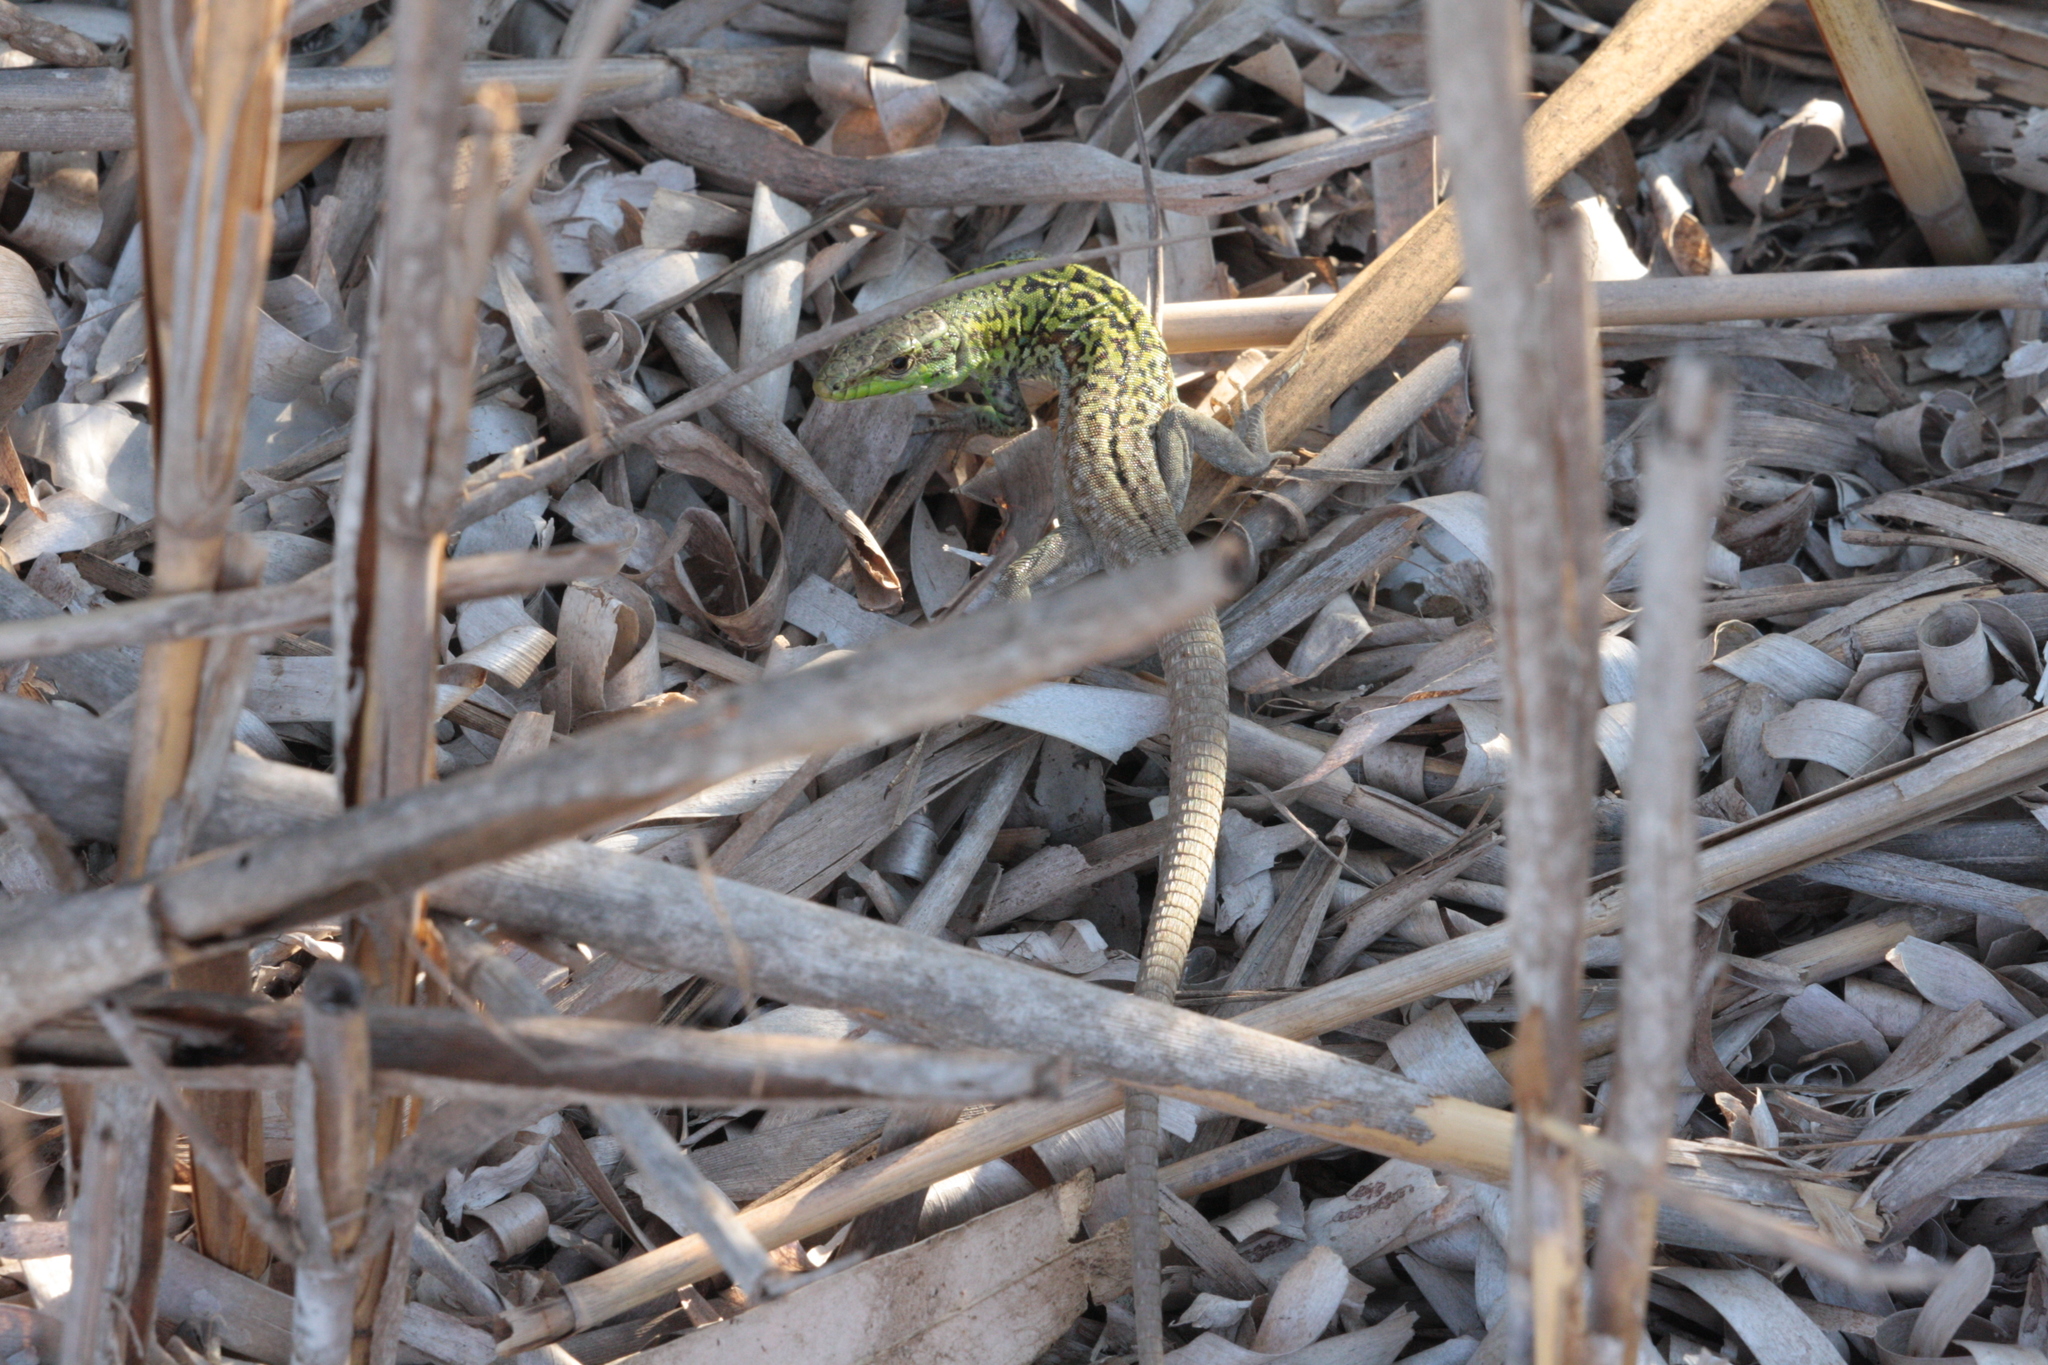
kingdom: Animalia
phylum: Chordata
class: Squamata
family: Lacertidae
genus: Podarcis
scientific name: Podarcis siculus
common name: Italian wall lizard
